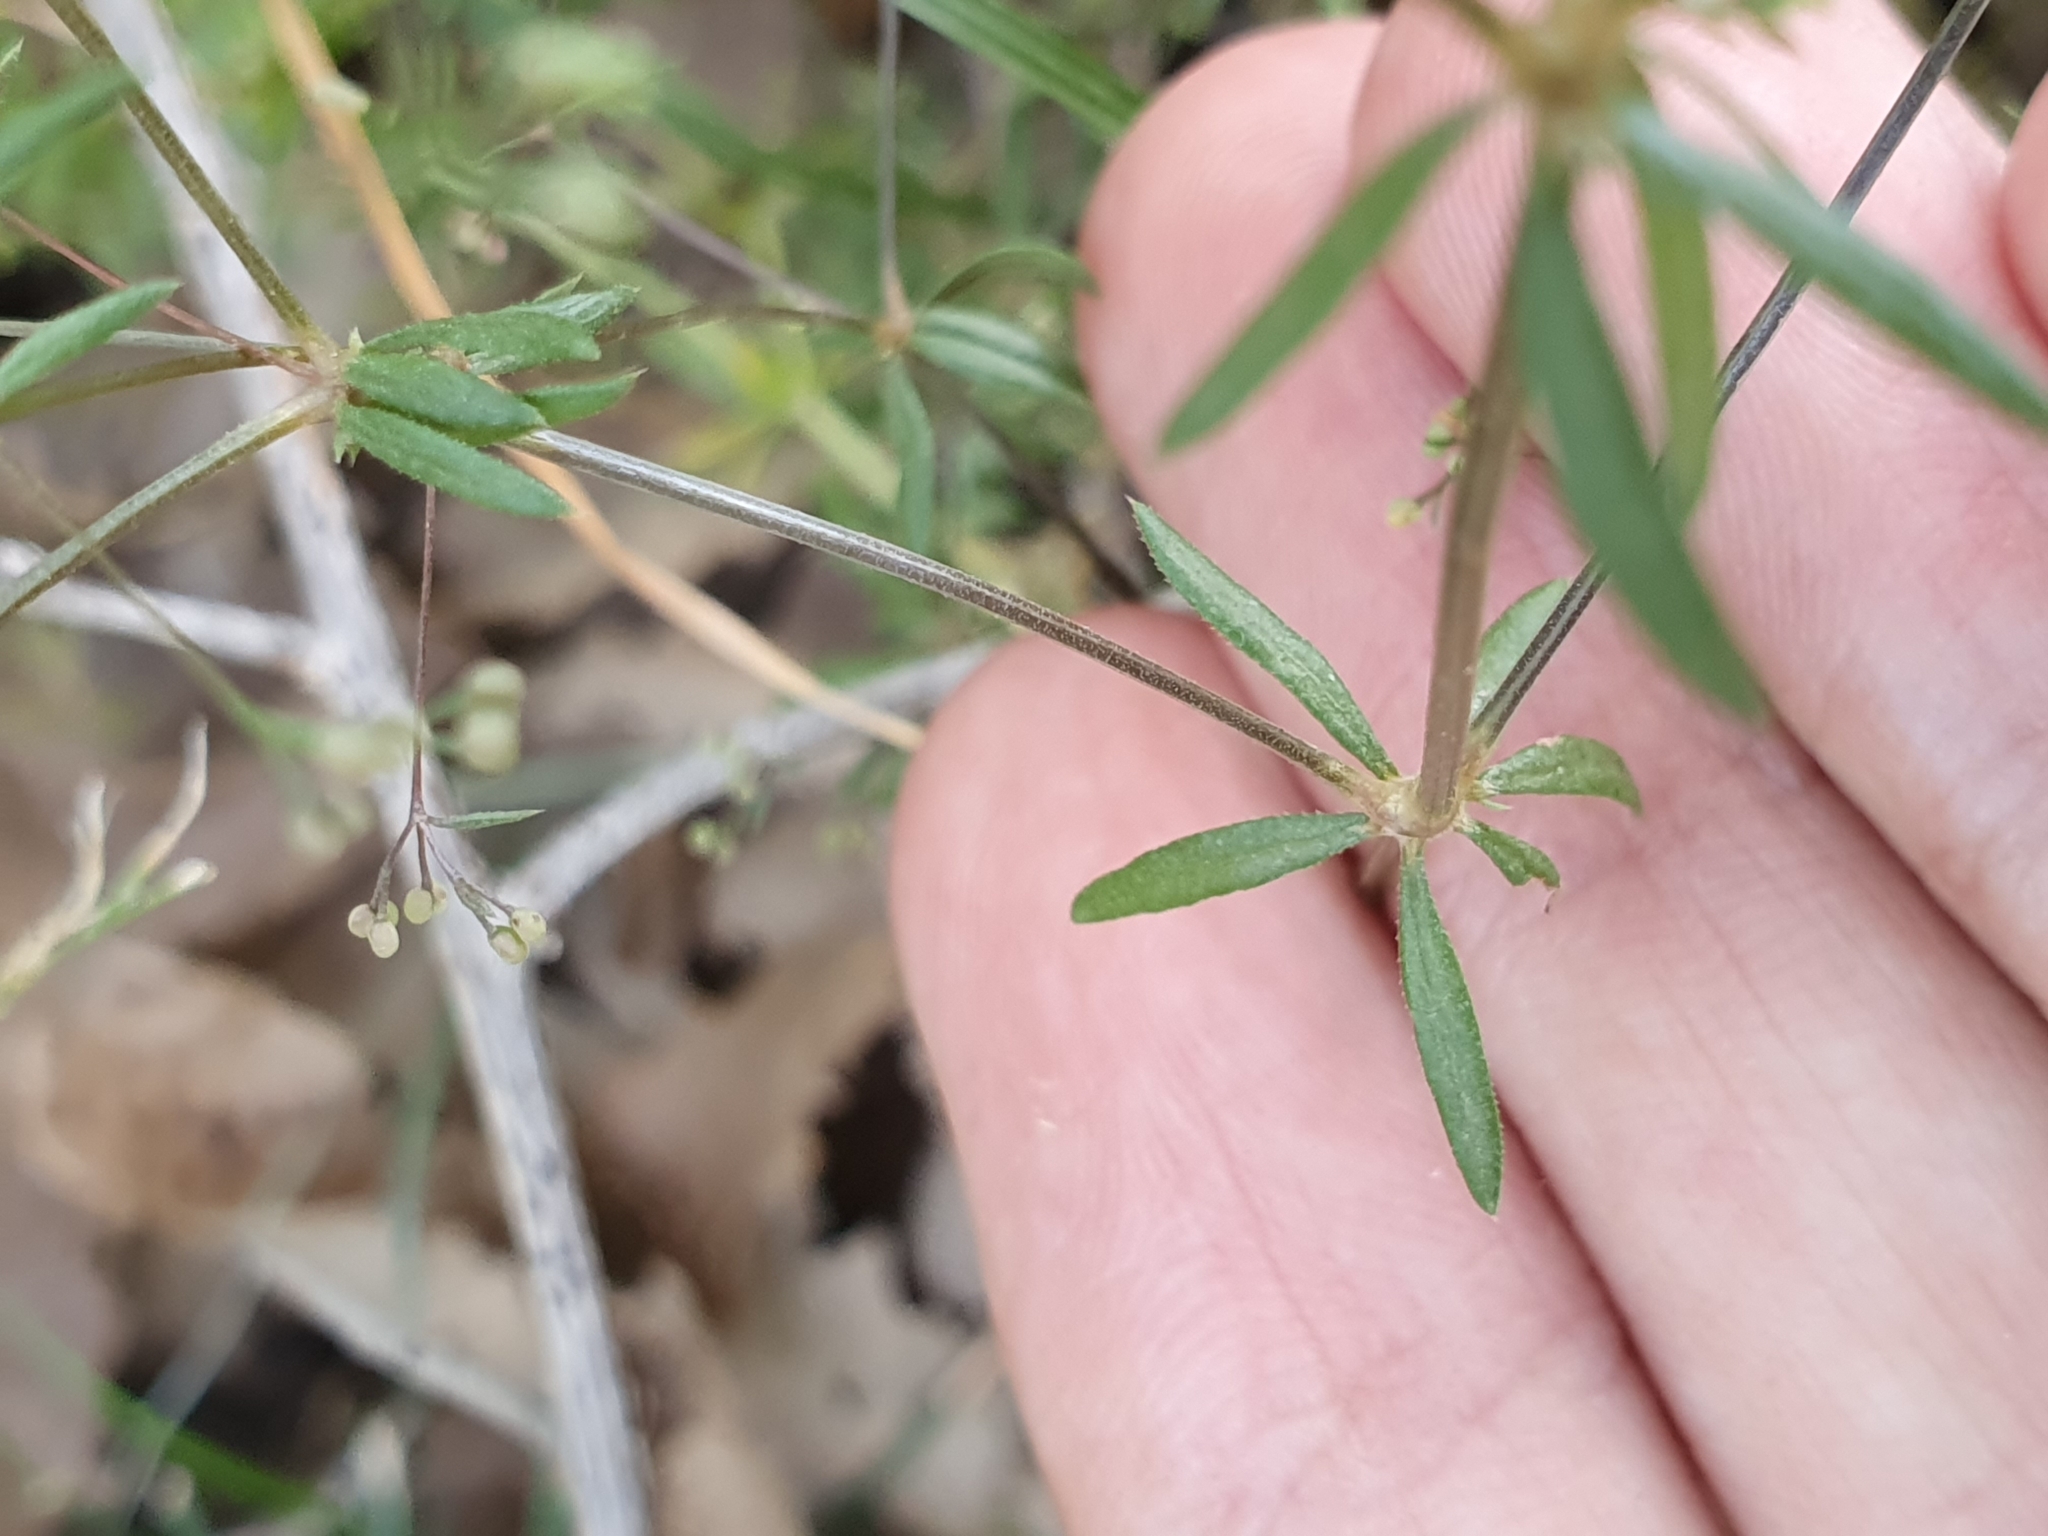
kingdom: Plantae
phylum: Tracheophyta
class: Magnoliopsida
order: Gentianales
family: Rubiaceae
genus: Galium
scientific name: Galium divaricatum
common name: Lamarck's bedstraw
